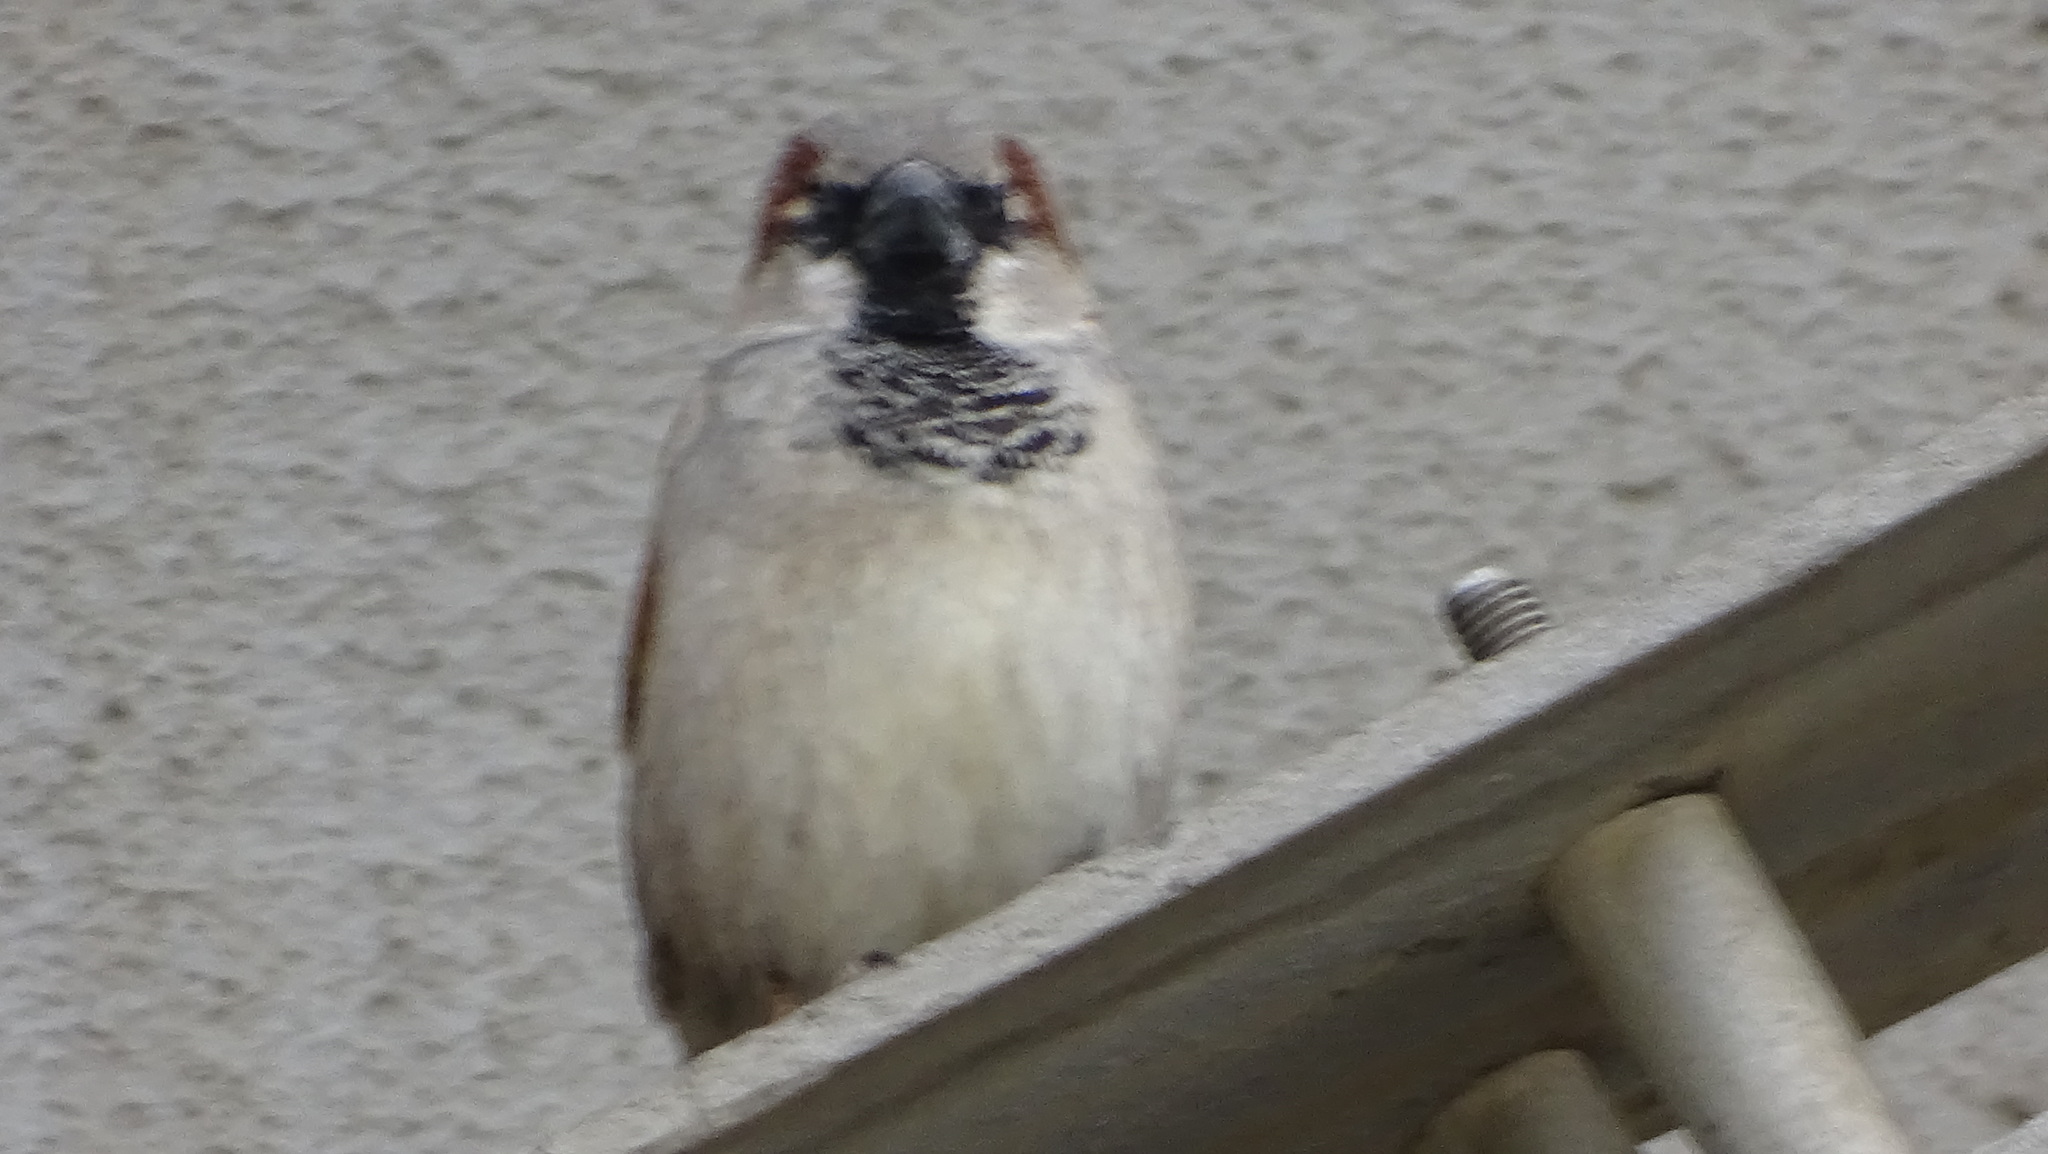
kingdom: Animalia
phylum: Chordata
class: Aves
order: Passeriformes
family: Passeridae
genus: Passer
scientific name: Passer domesticus
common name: House sparrow
